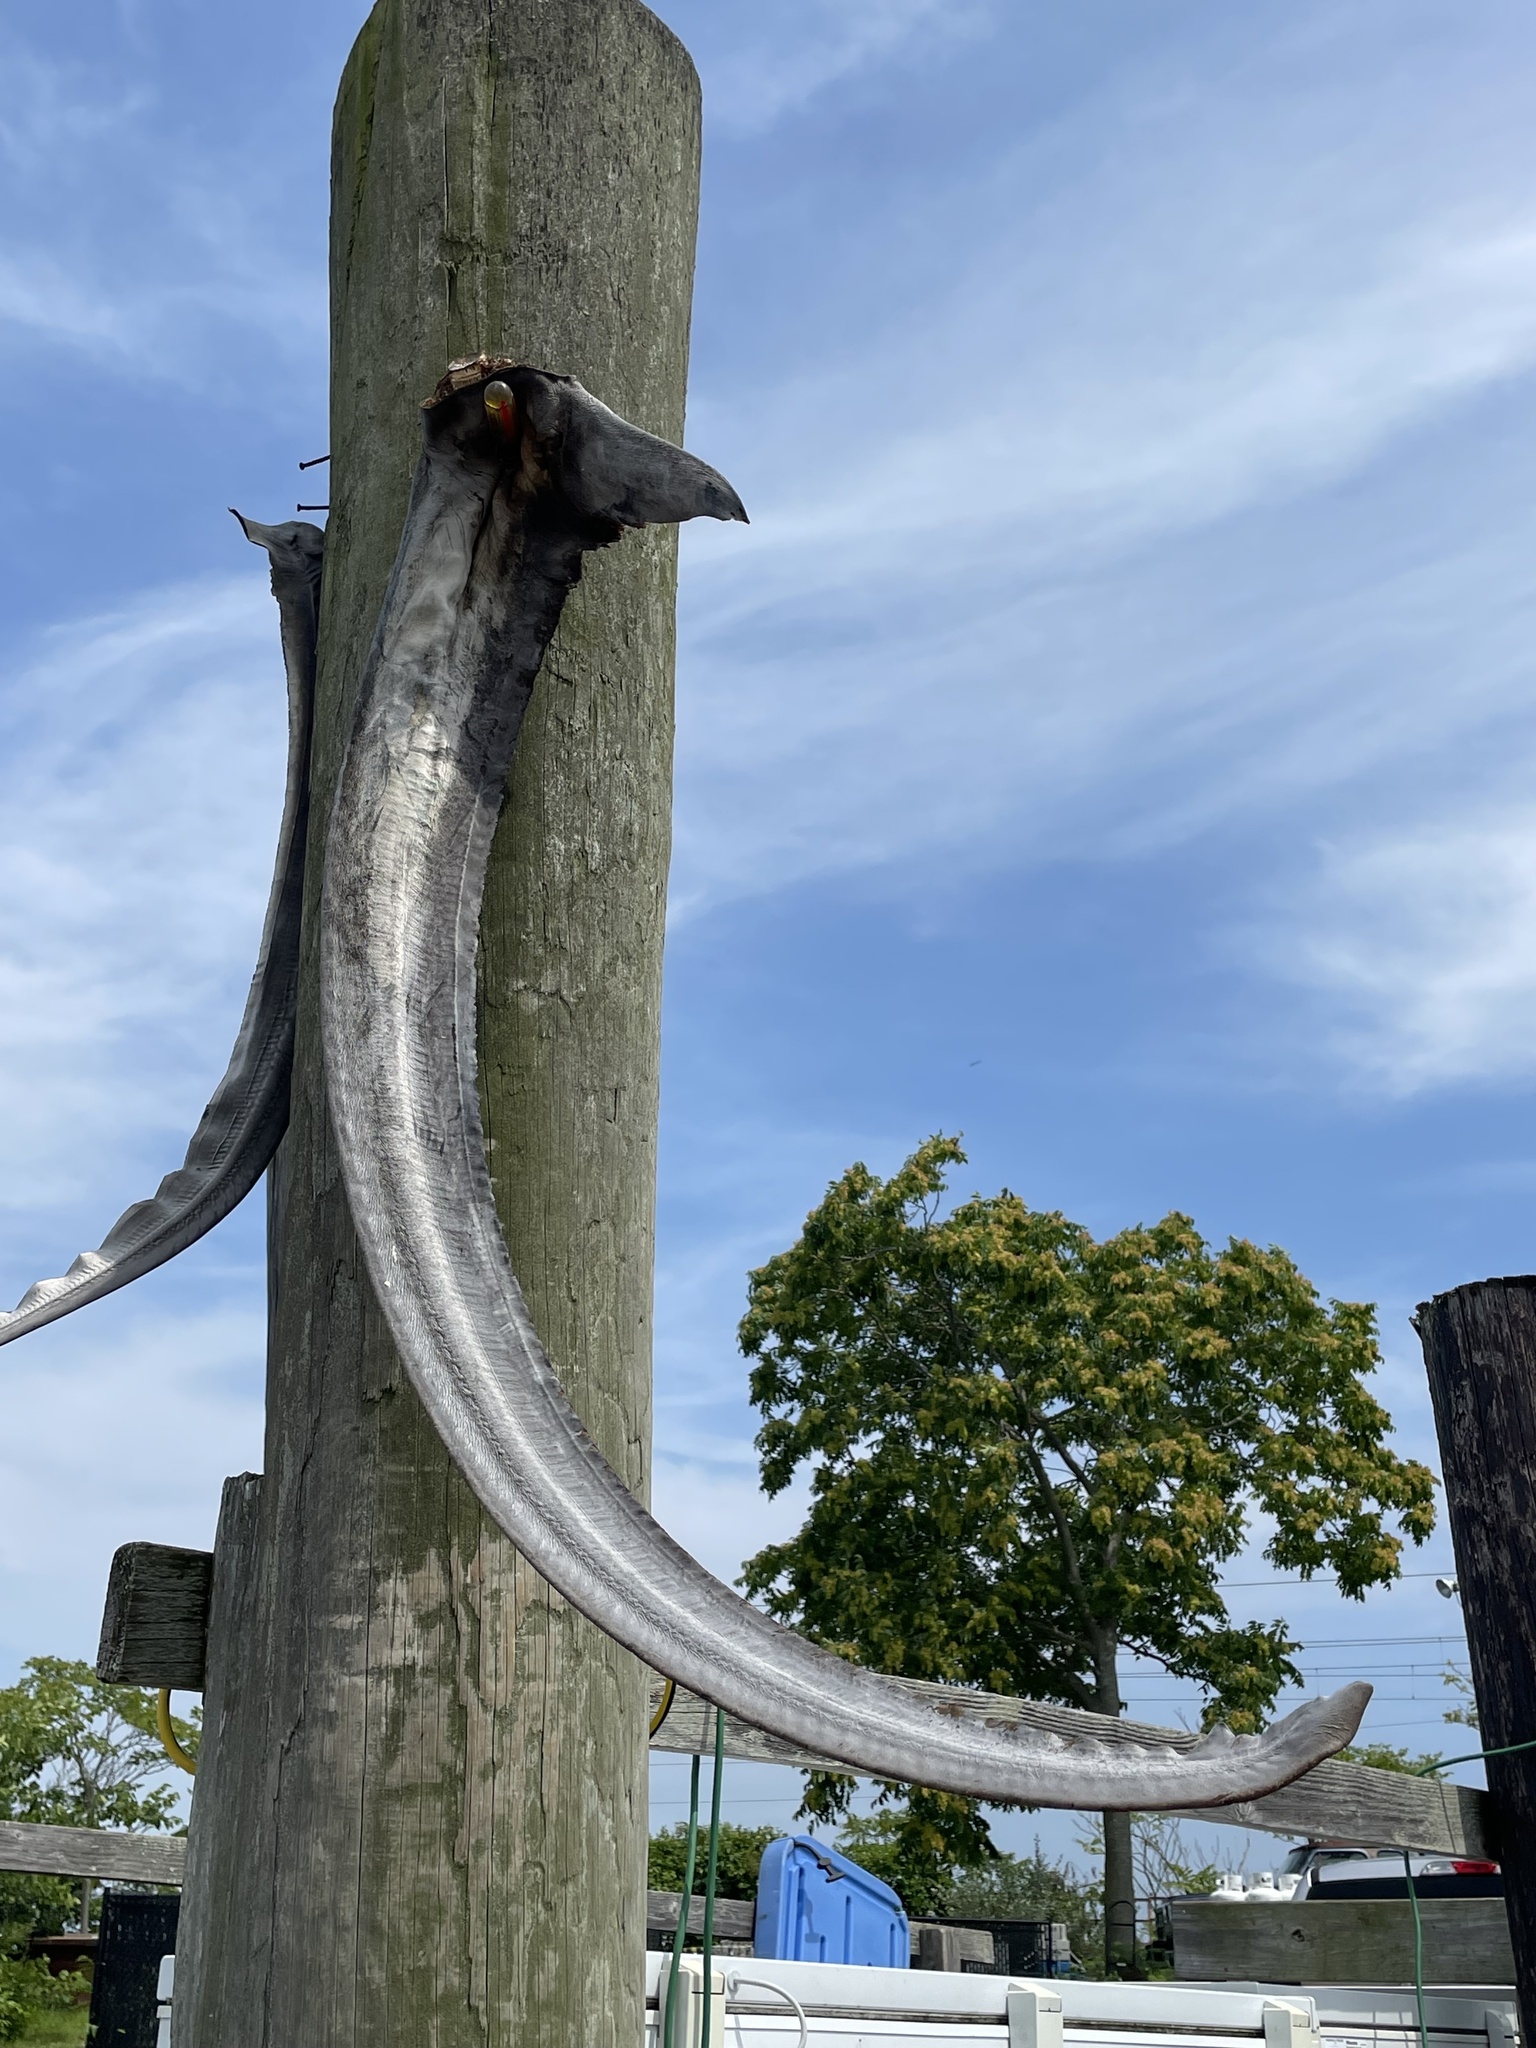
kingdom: Animalia
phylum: Chordata
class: Elasmobranchii
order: Lamniformes
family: Alopiidae
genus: Alopias
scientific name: Alopias vulpinus
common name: Thresher shark
